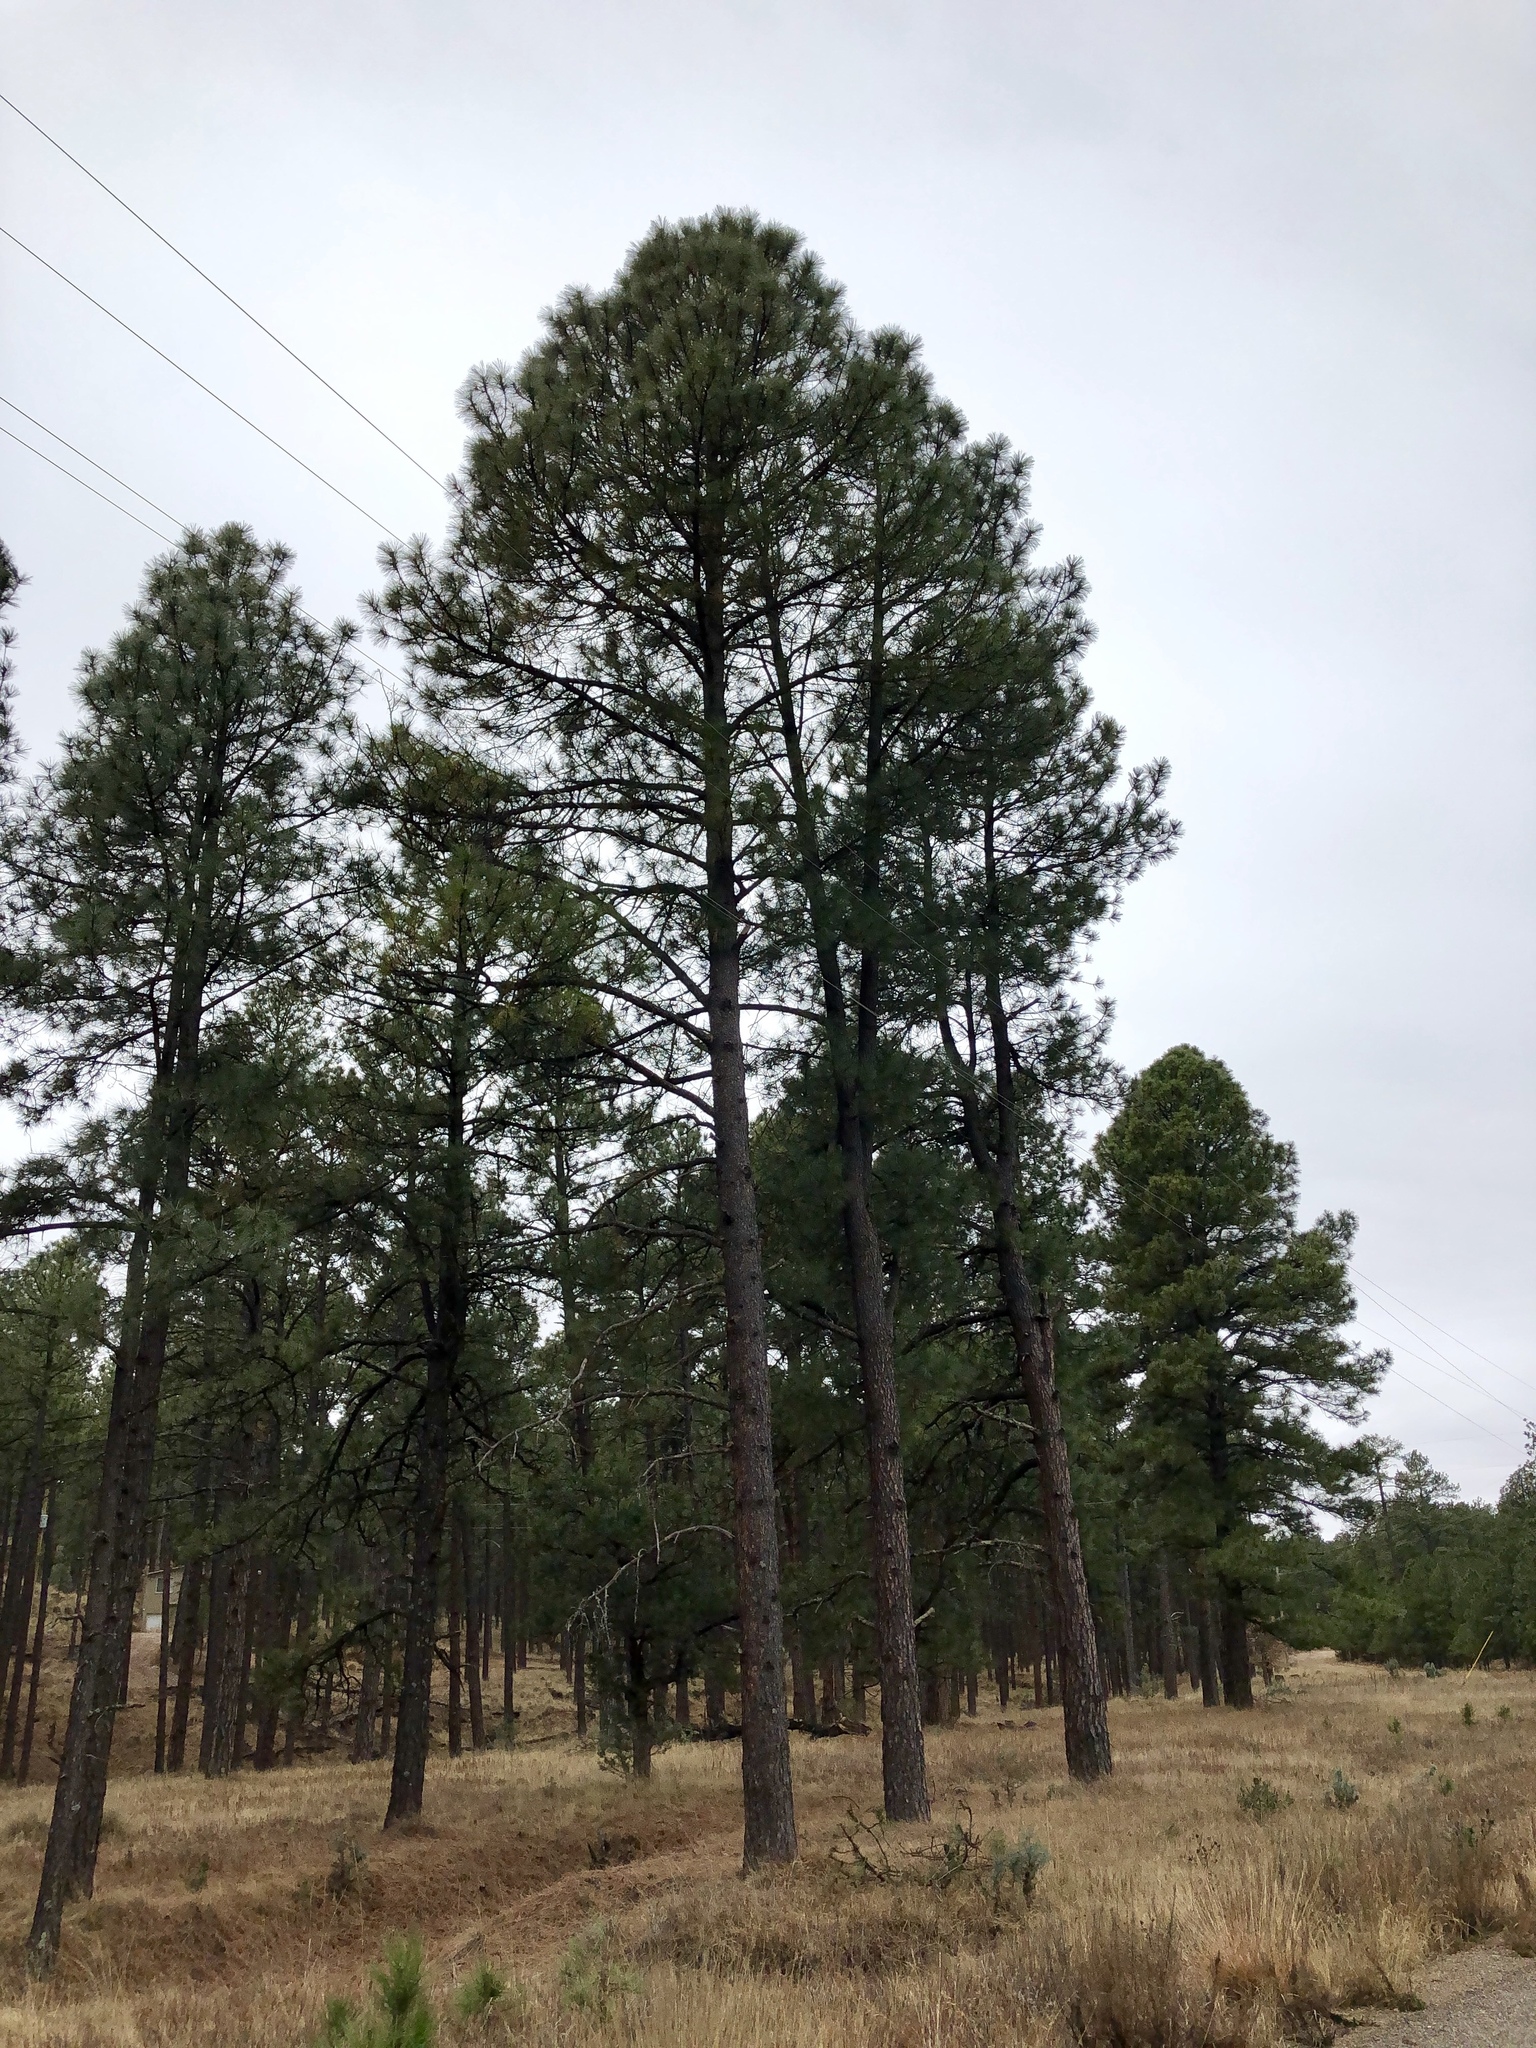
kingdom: Plantae
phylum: Tracheophyta
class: Pinopsida
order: Pinales
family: Pinaceae
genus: Pinus
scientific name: Pinus ponderosa
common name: Western yellow-pine
